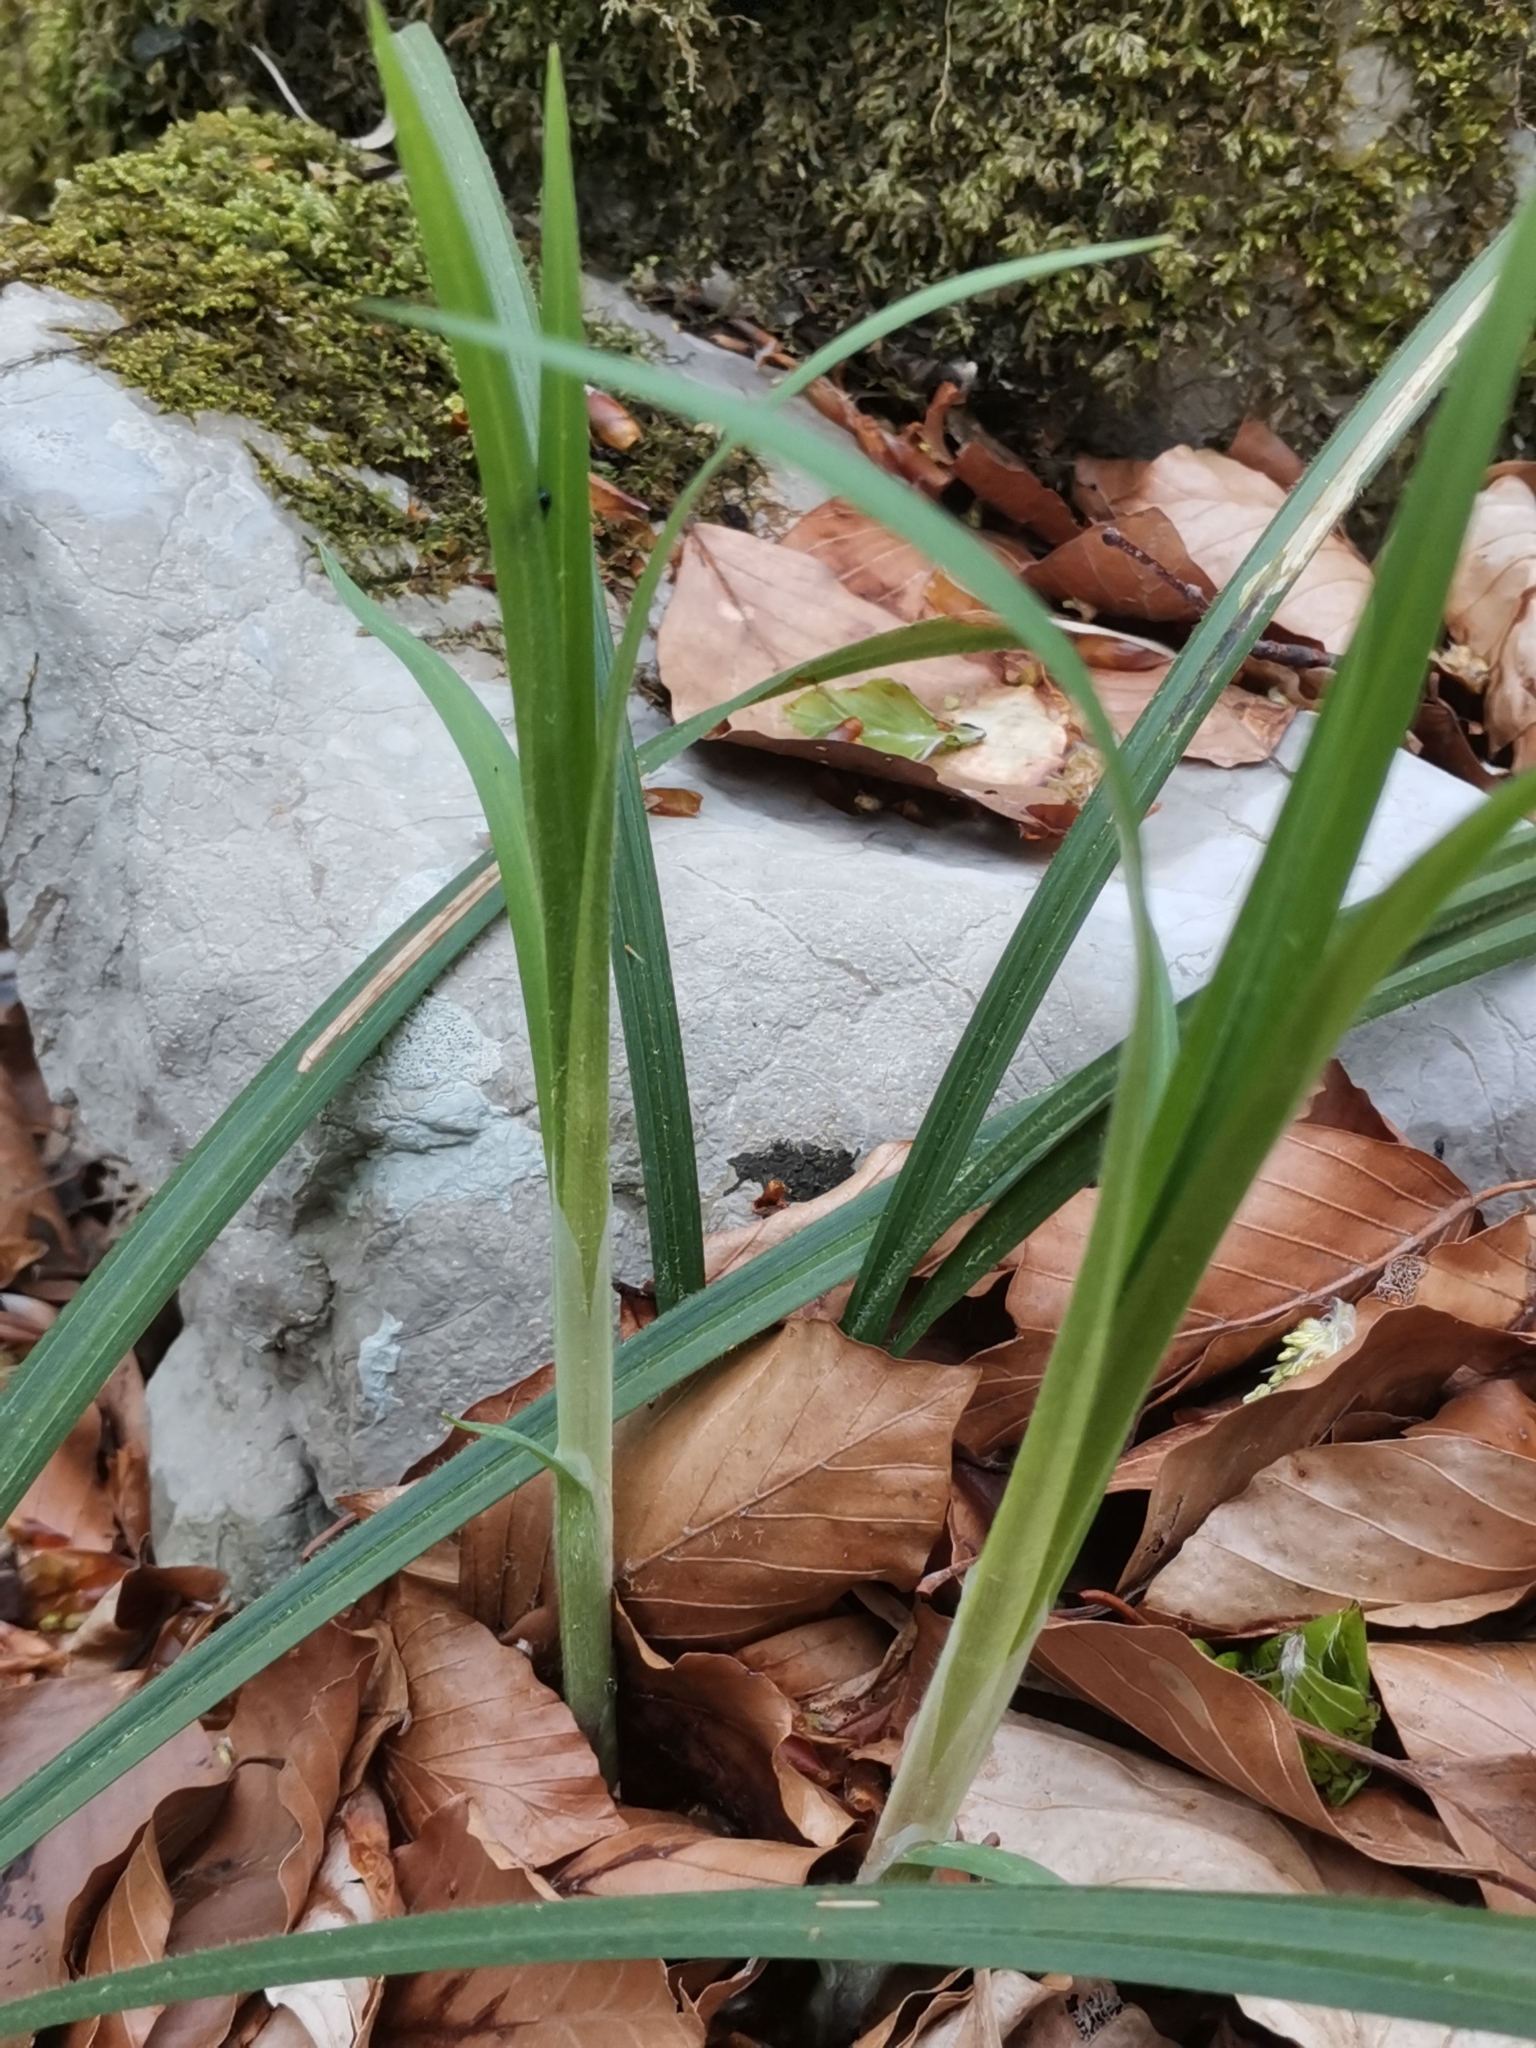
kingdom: Plantae
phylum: Tracheophyta
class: Liliopsida
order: Poales
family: Cyperaceae
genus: Carex
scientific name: Carex pilosa
